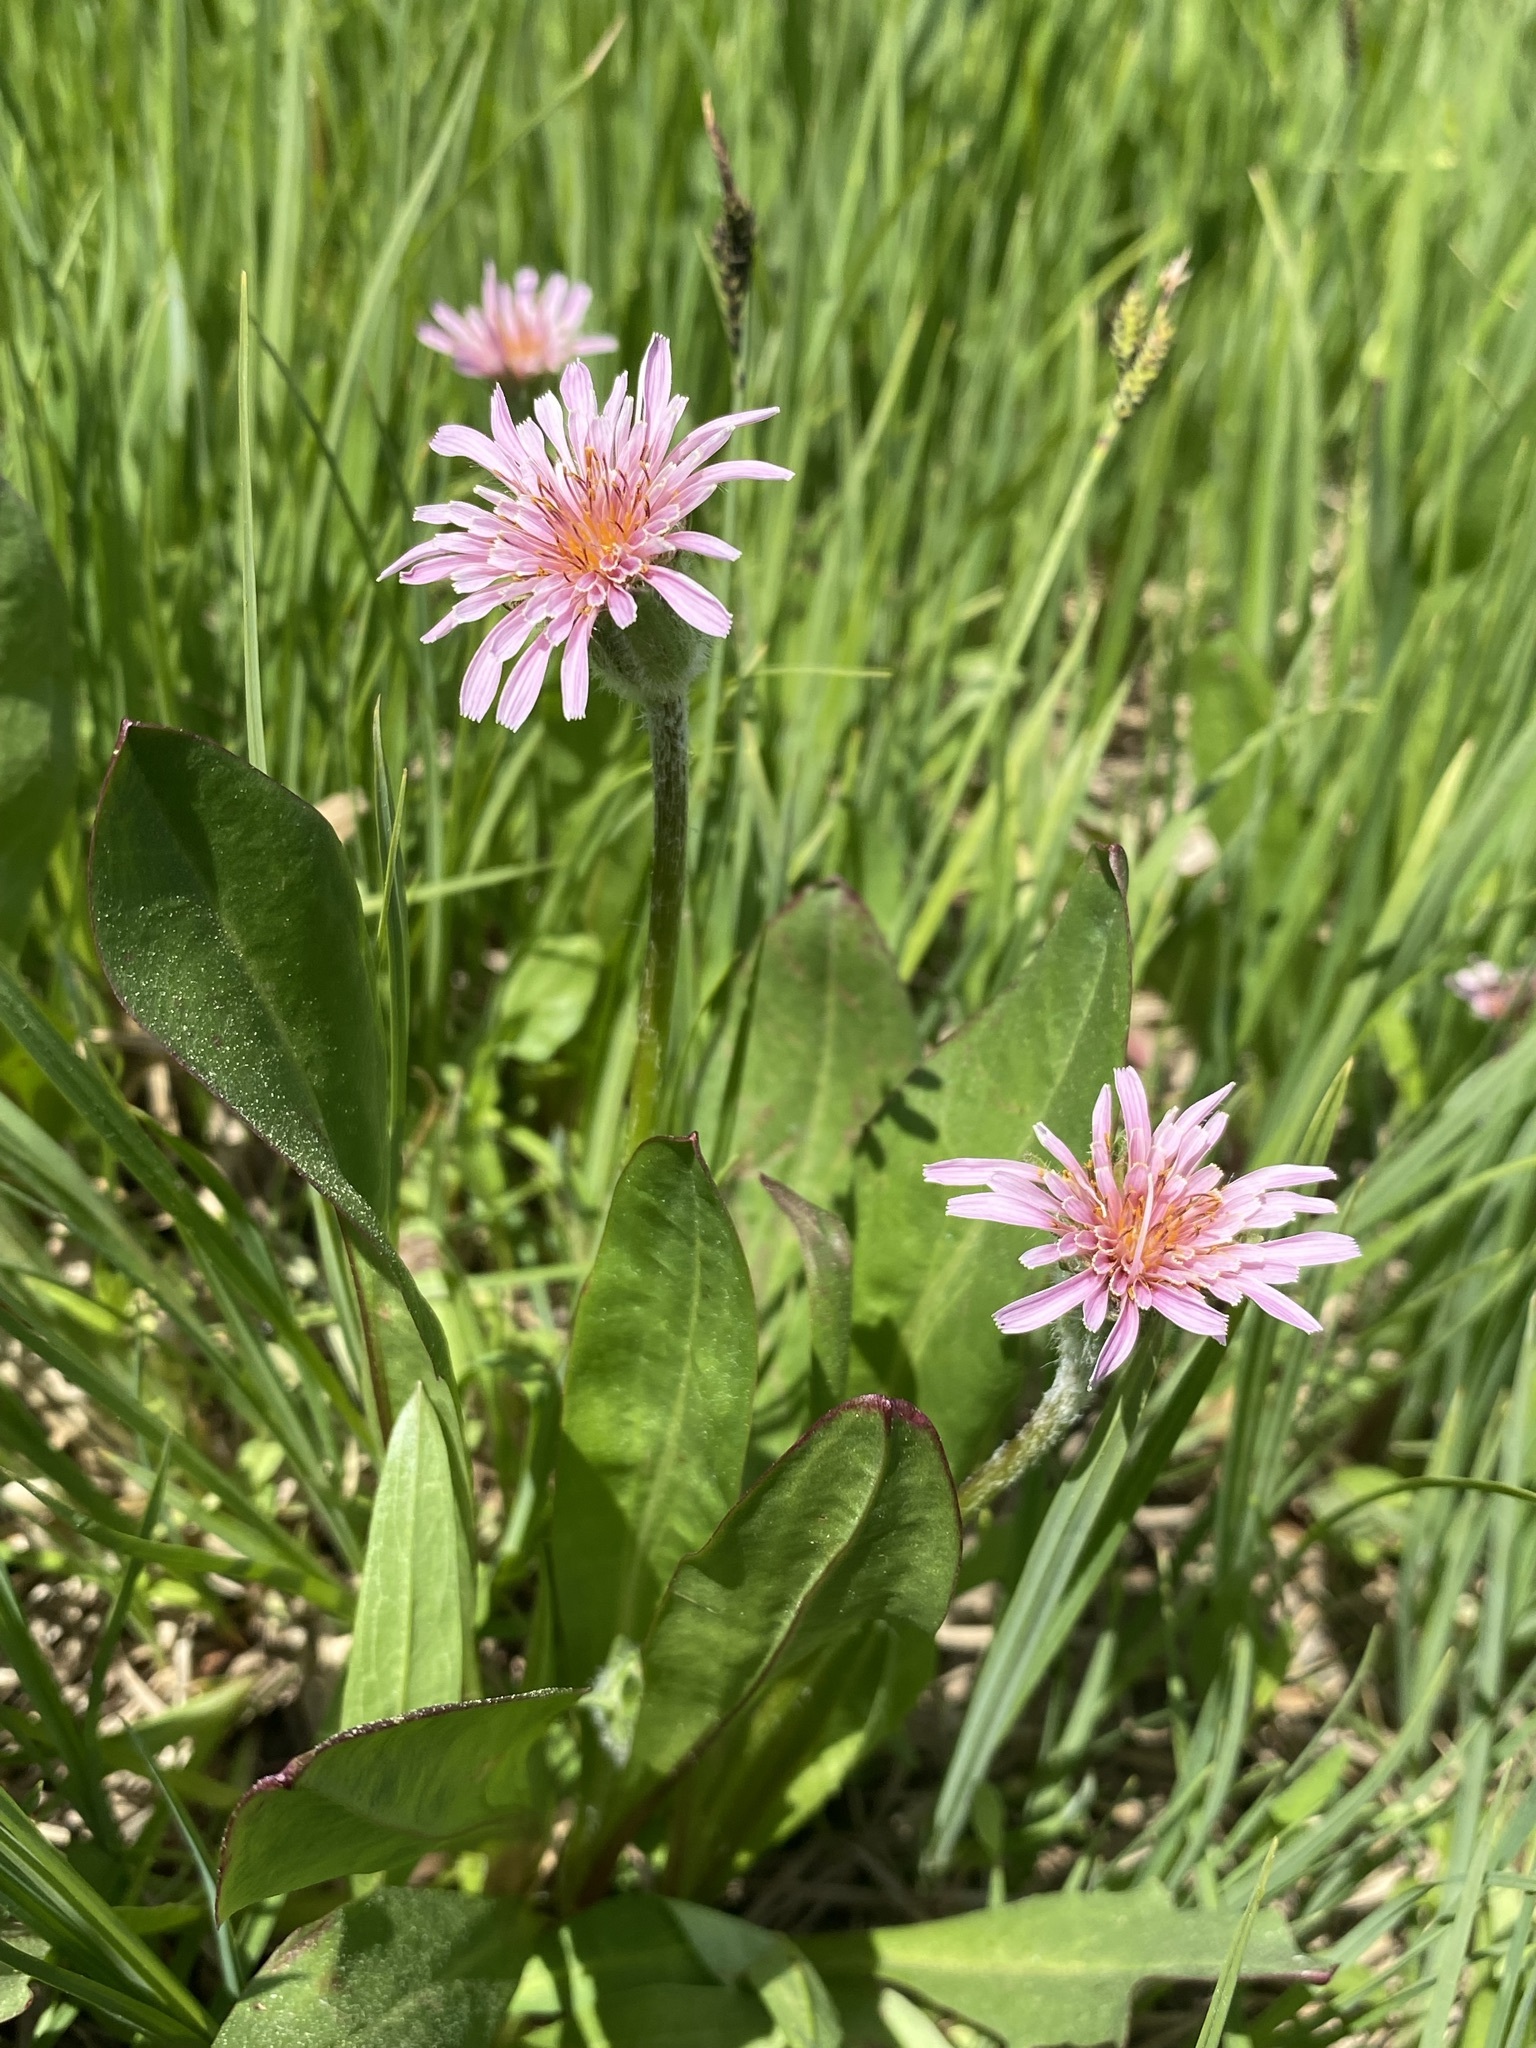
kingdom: Plantae
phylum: Tracheophyta
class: Magnoliopsida
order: Asterales
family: Asteraceae
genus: Agoseris
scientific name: Agoseris aurantiaca
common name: Mountain agoseris
